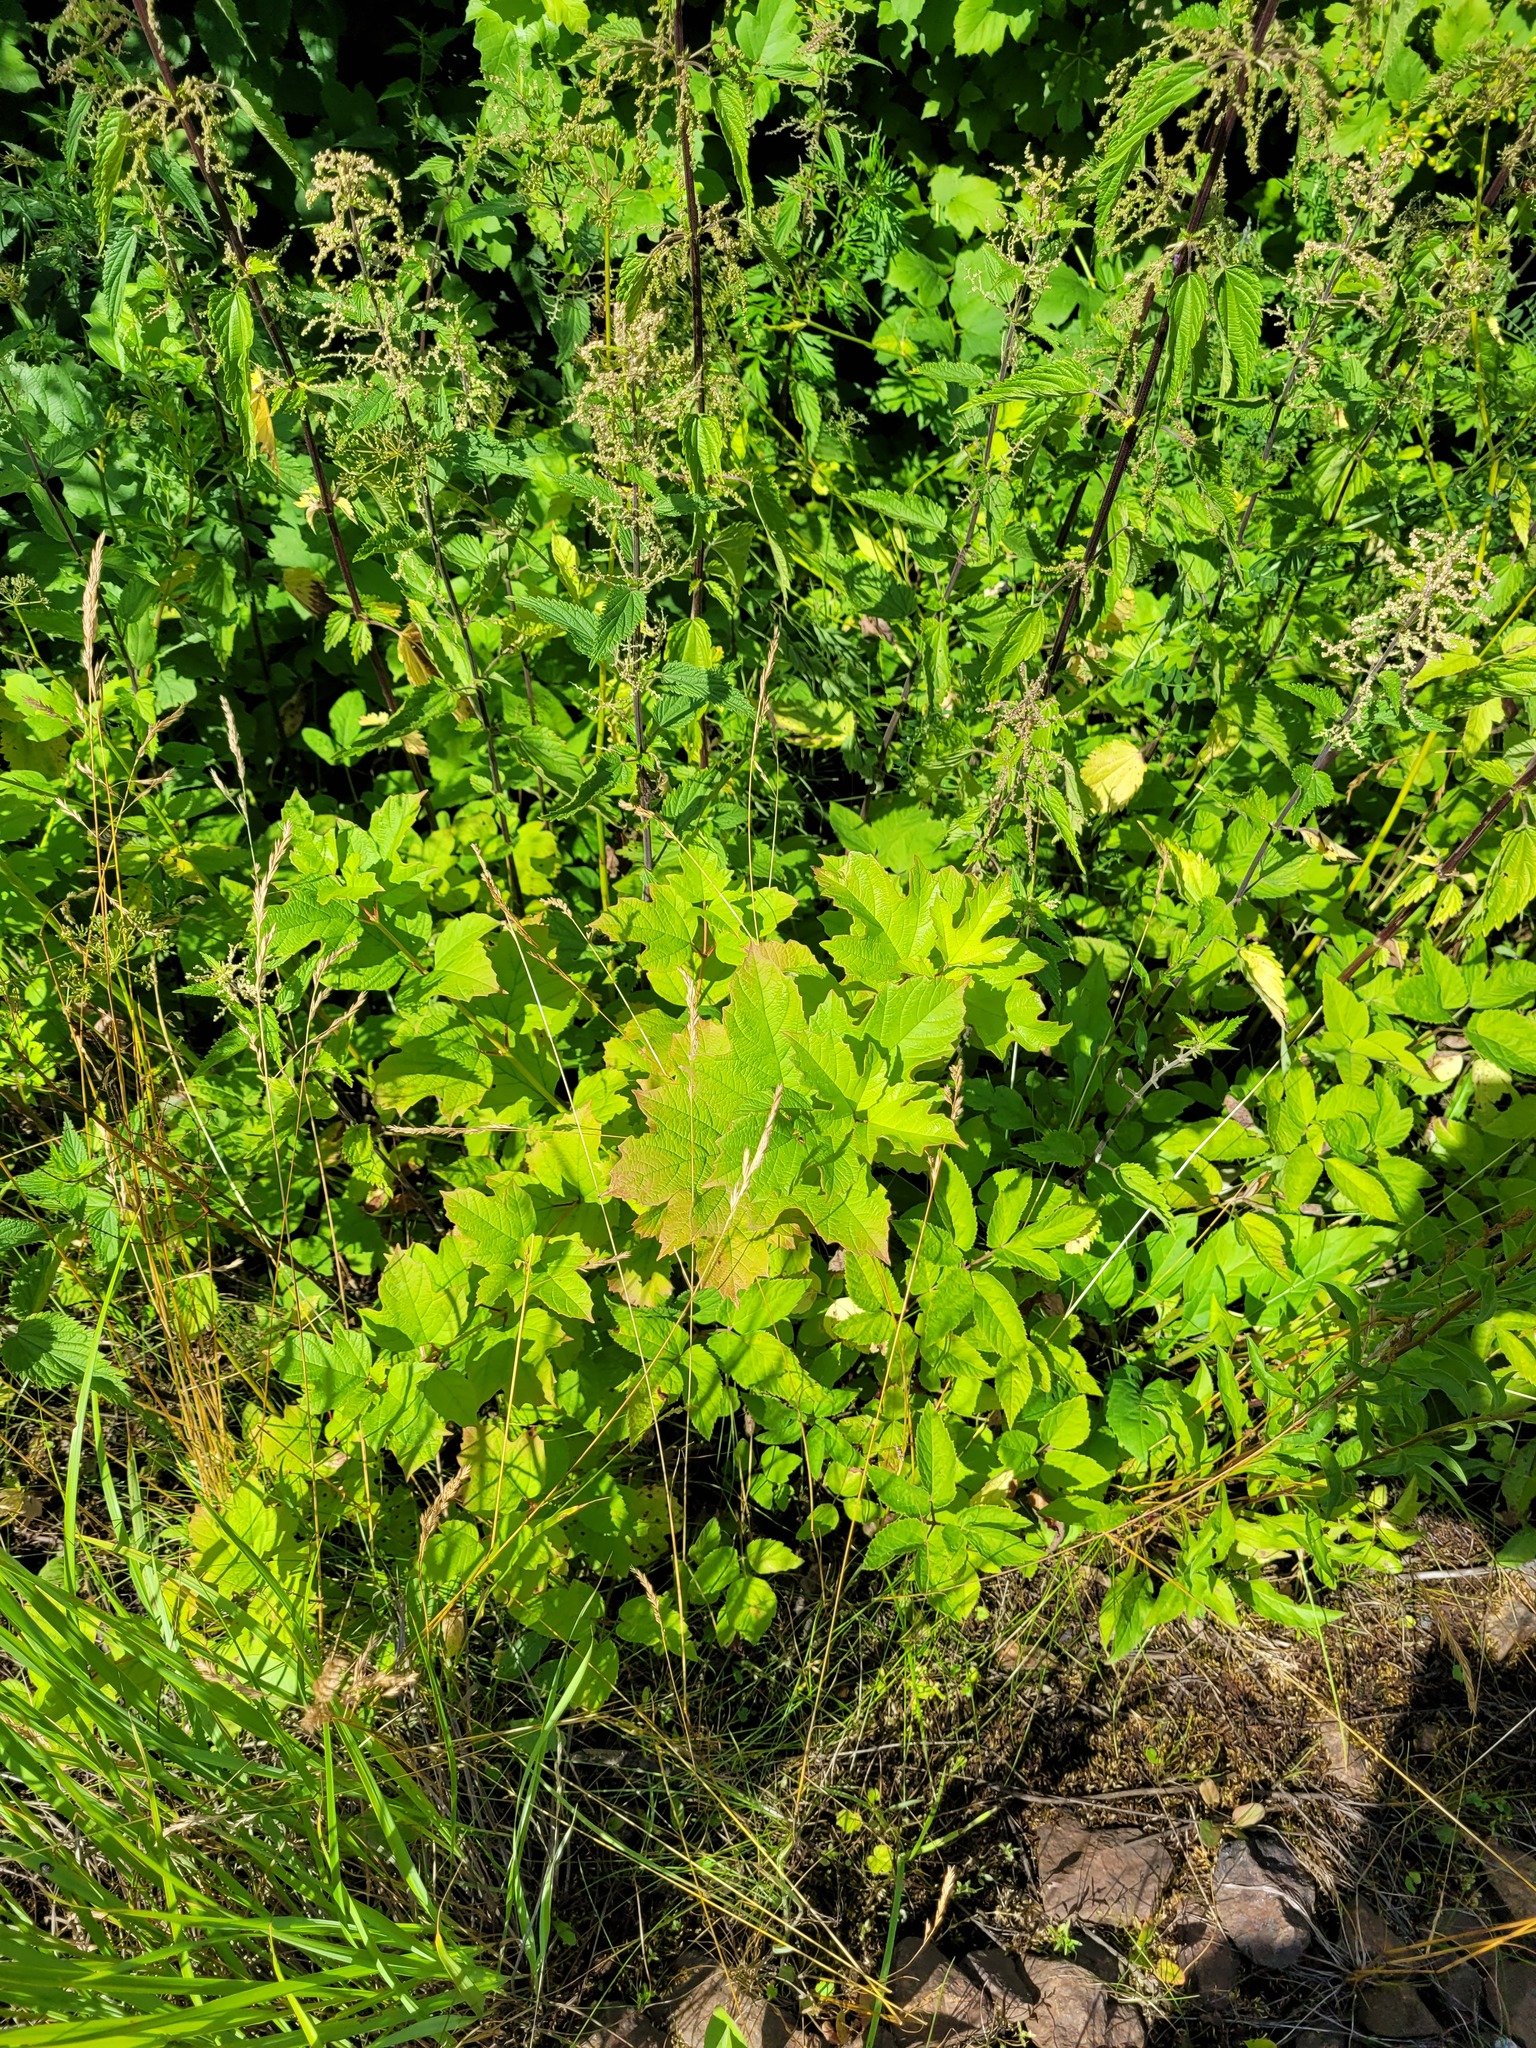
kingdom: Plantae
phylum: Tracheophyta
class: Magnoliopsida
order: Dipsacales
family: Viburnaceae
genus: Viburnum
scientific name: Viburnum opulus
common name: Guelder-rose
